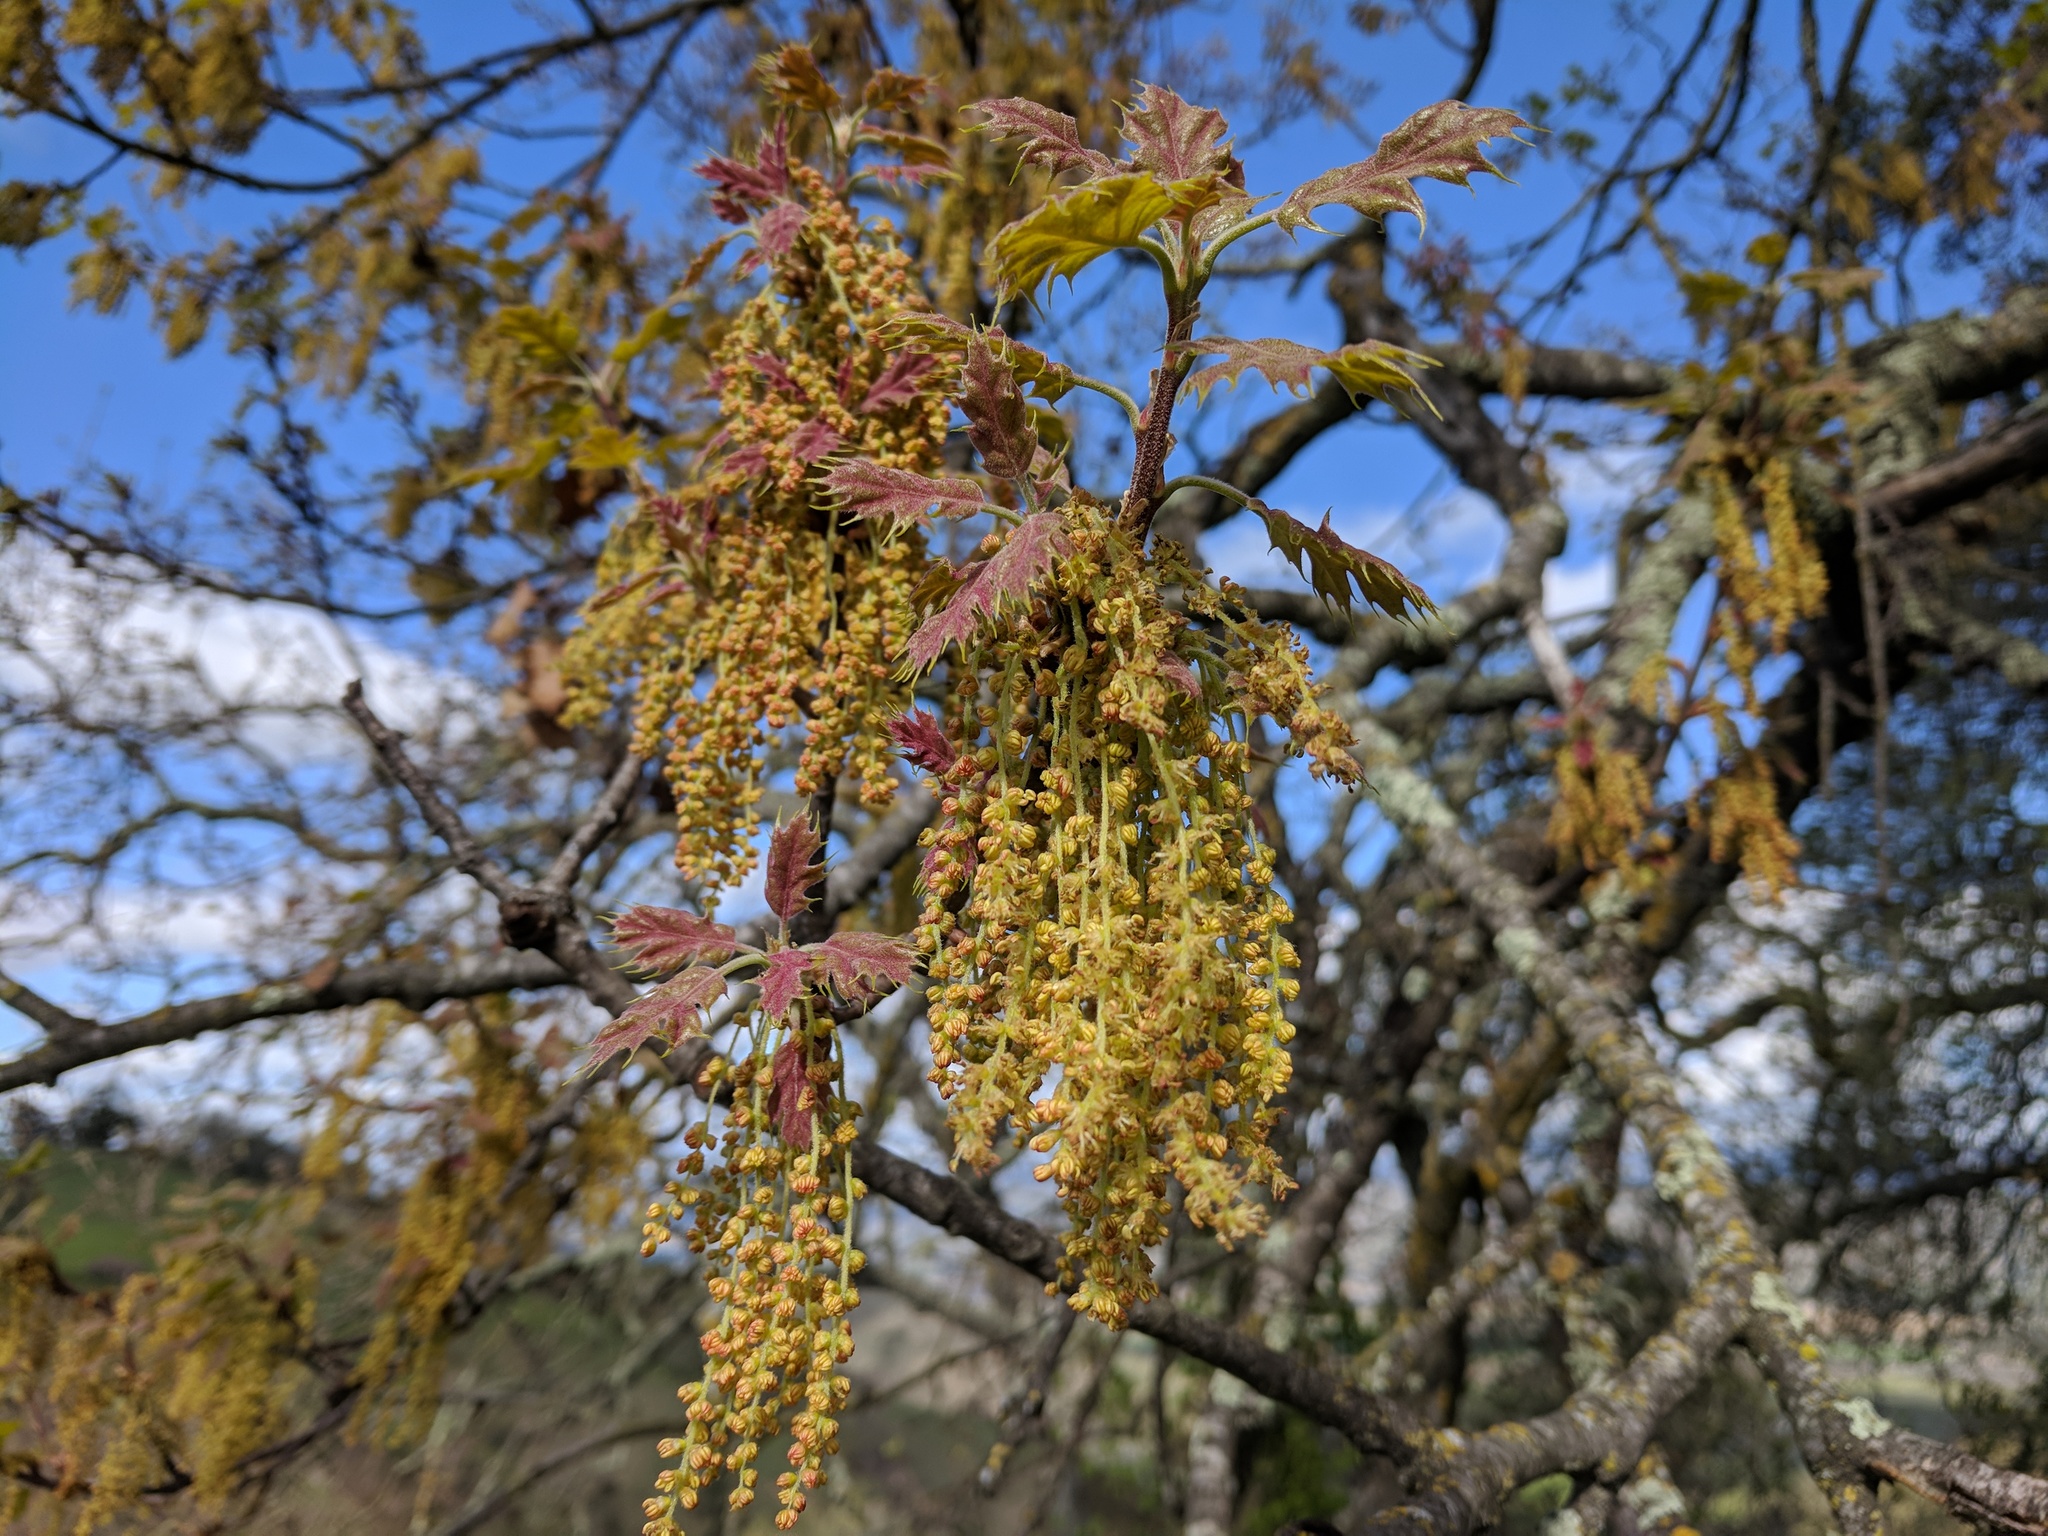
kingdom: Plantae
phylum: Tracheophyta
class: Magnoliopsida
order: Fagales
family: Fagaceae
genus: Quercus
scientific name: Quercus kelloggii
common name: California black oak
